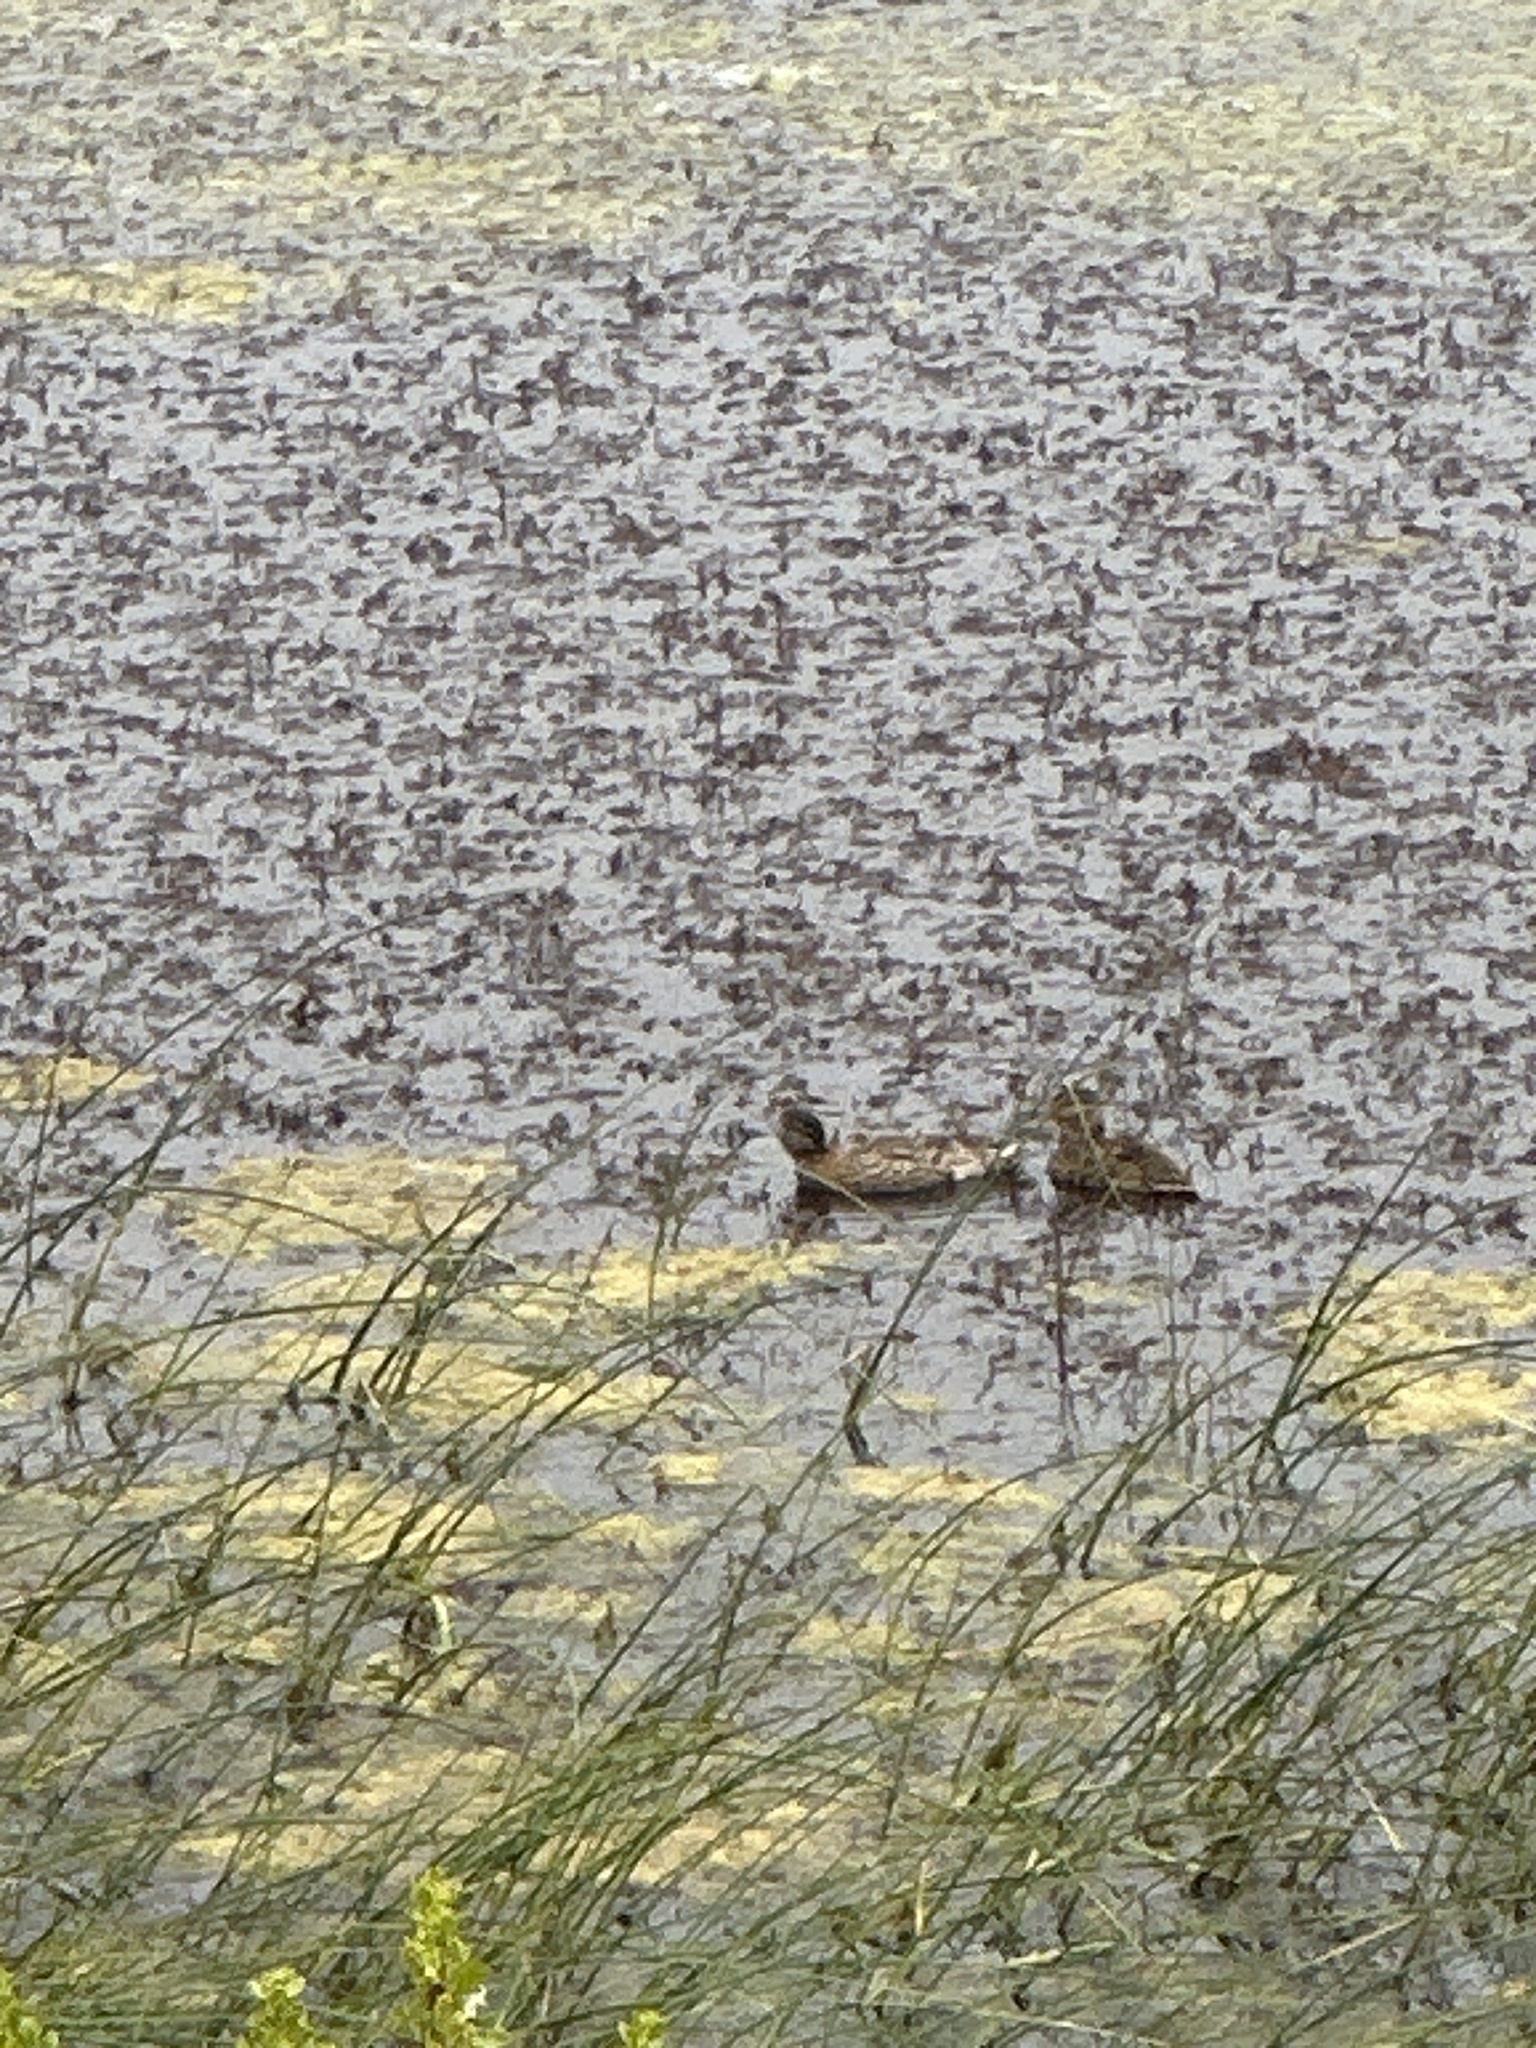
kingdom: Animalia
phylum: Chordata
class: Aves
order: Anseriformes
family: Anatidae
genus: Anas
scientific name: Anas platyrhynchos
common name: Mallard
